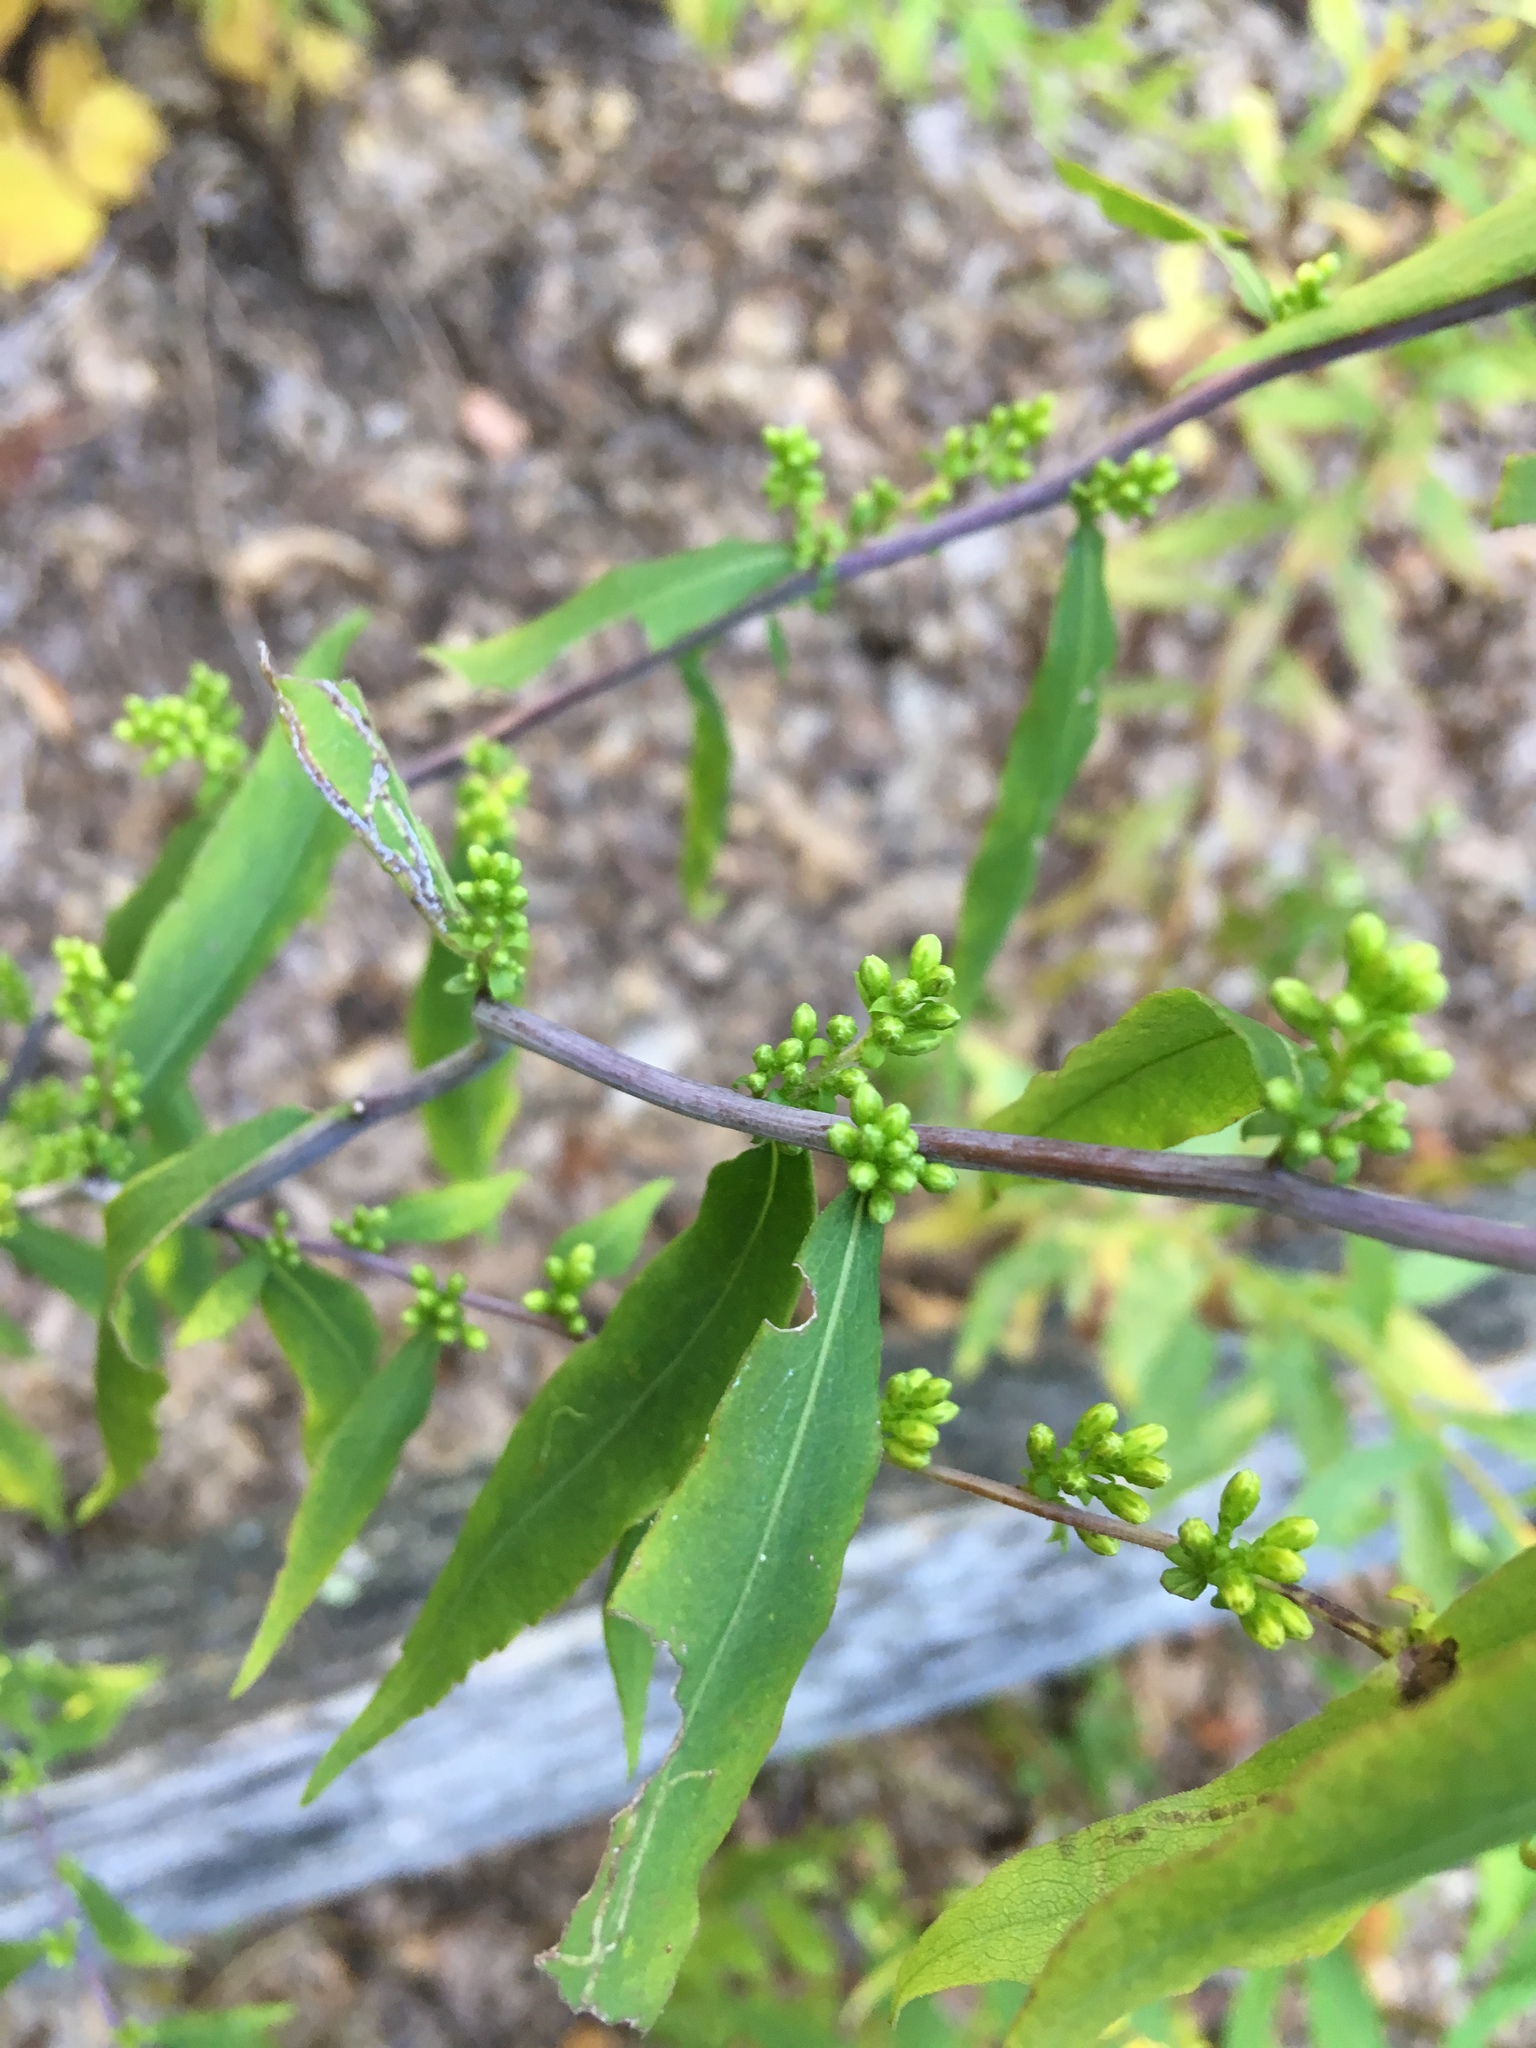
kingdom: Plantae
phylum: Tracheophyta
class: Magnoliopsida
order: Asterales
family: Asteraceae
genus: Solidago
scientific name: Solidago caesia
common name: Woodland goldenrod
